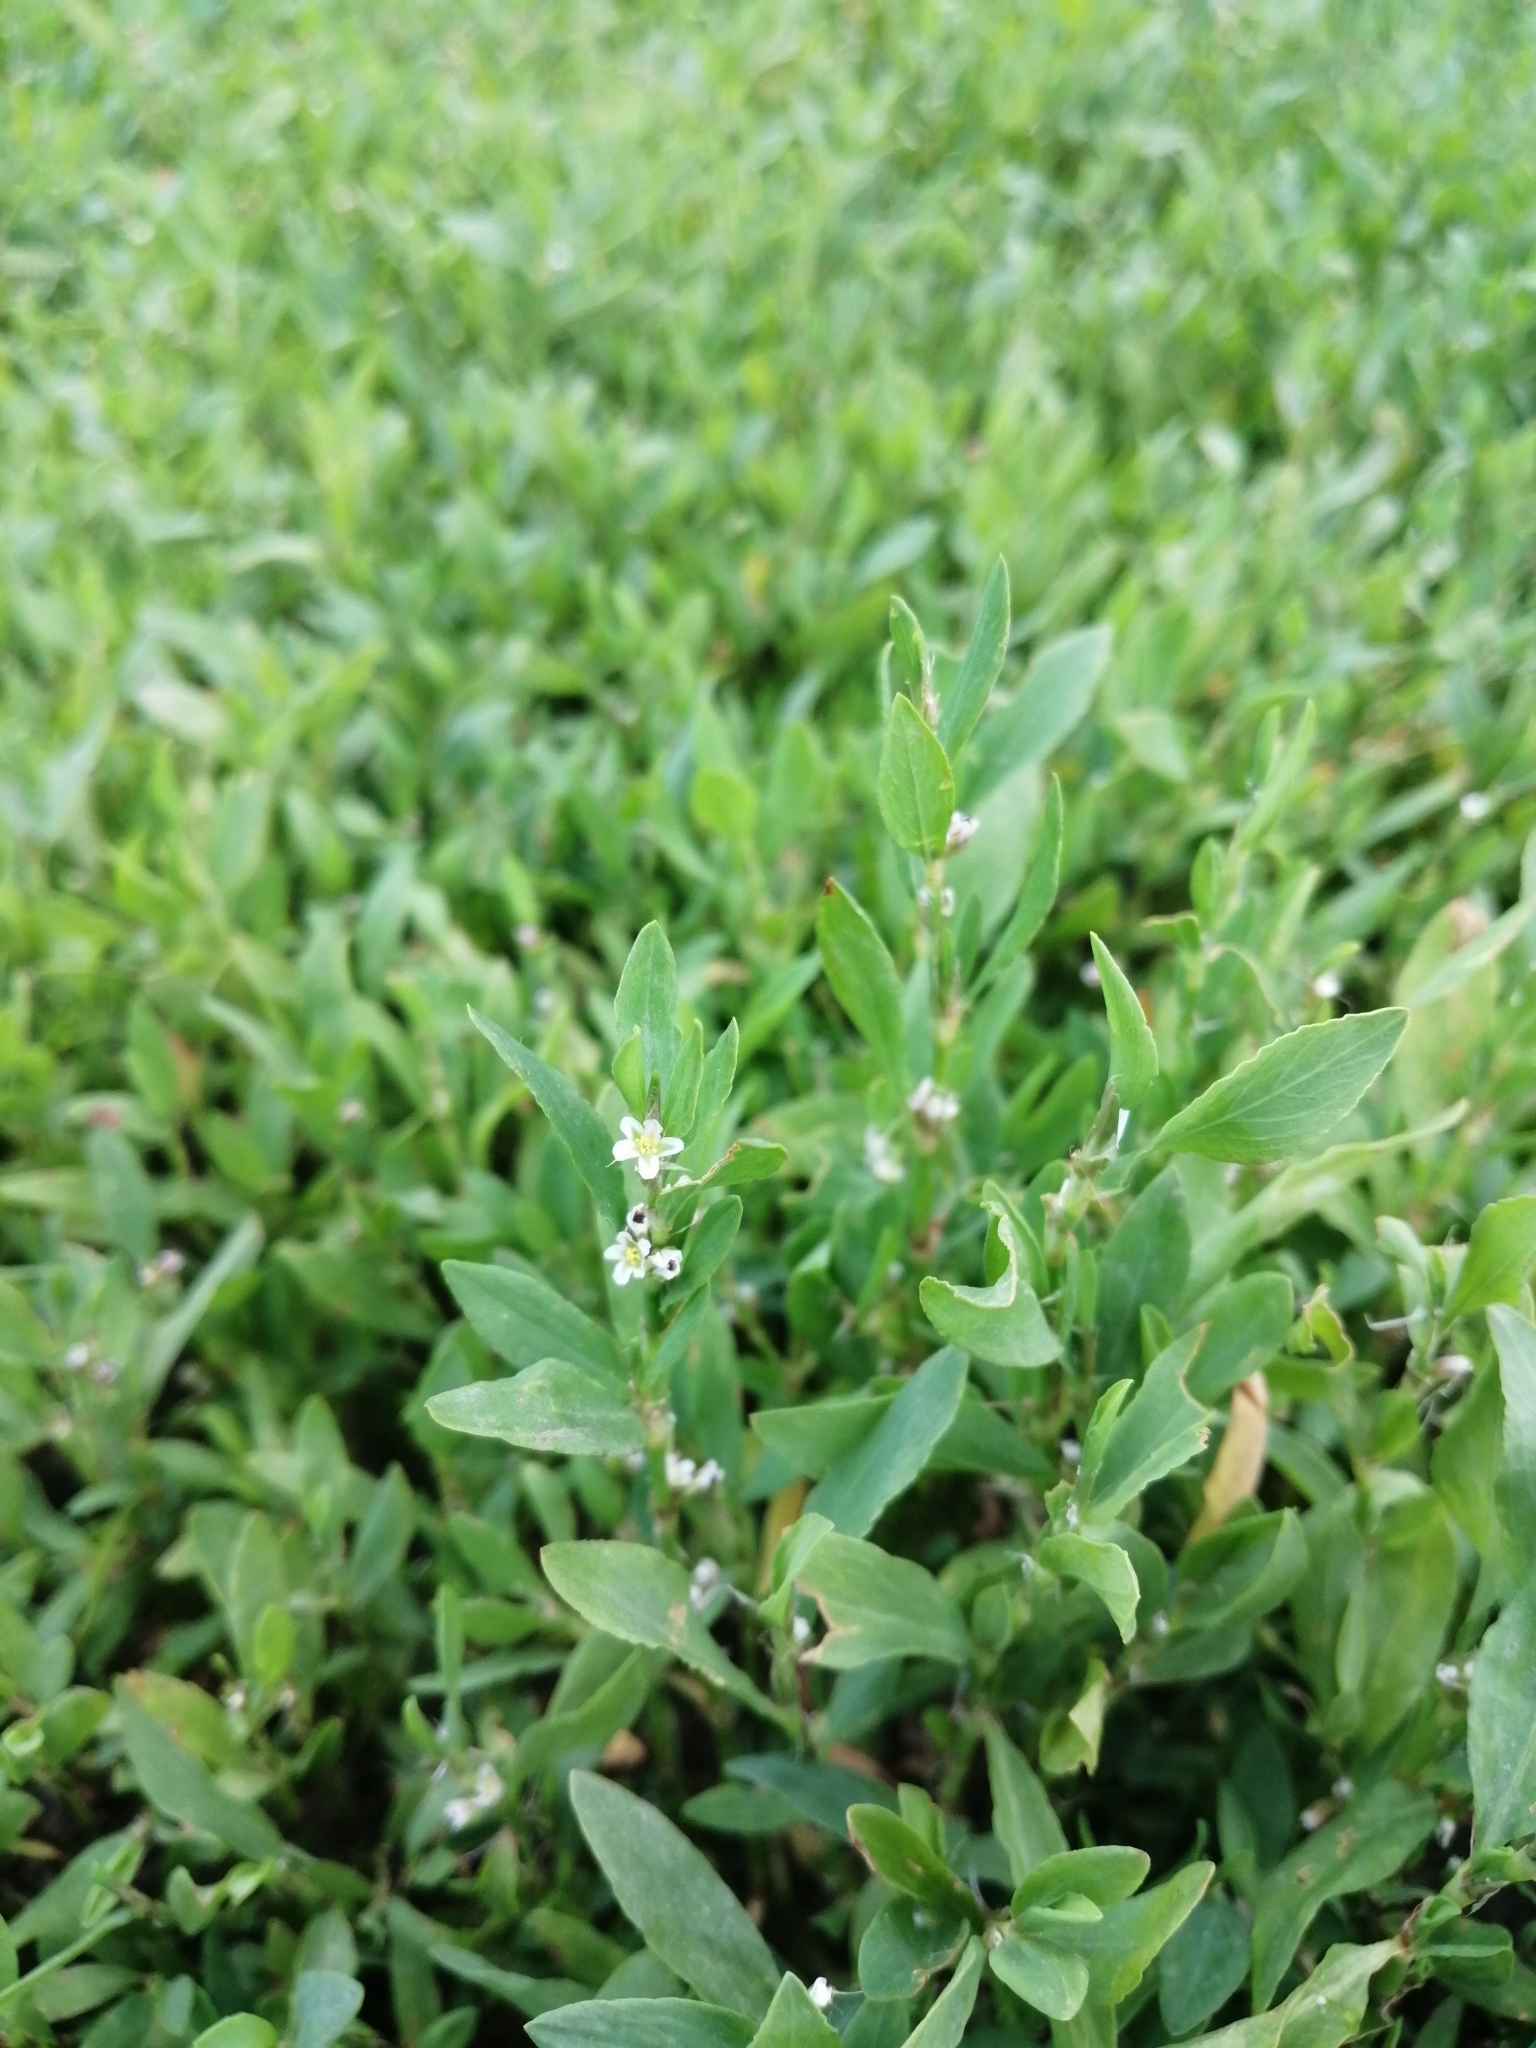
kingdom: Plantae
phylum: Tracheophyta
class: Magnoliopsida
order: Caryophyllales
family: Polygonaceae
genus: Polygonum
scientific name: Polygonum
